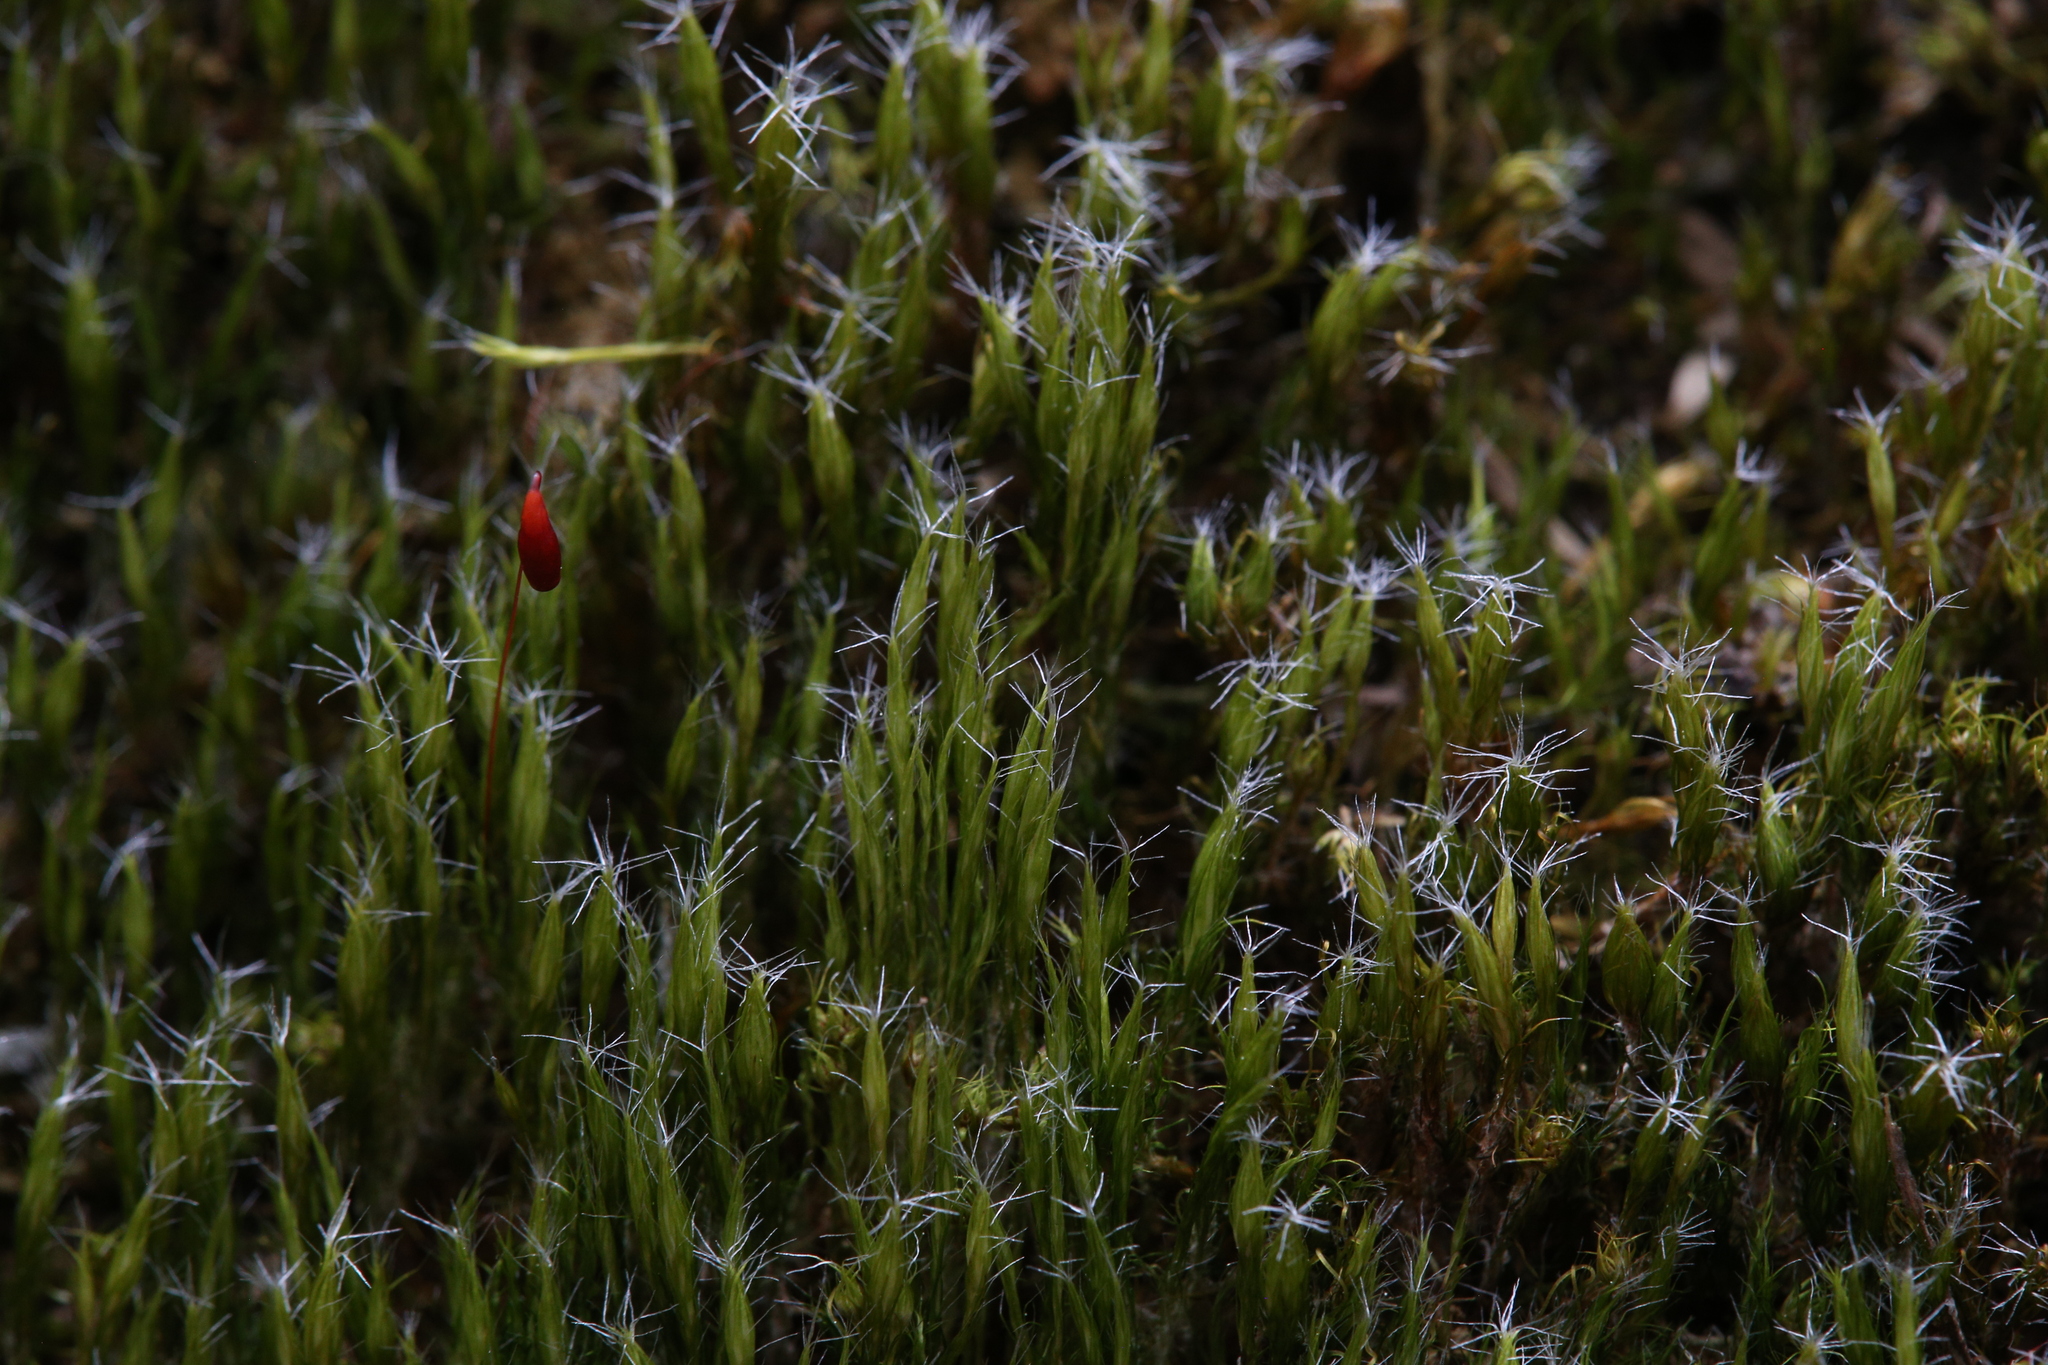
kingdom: Plantae
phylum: Bryophyta
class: Bryopsida
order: Dicranales
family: Leucobryaceae
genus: Campylopus
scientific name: Campylopus introflexus
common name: Heath star moss
